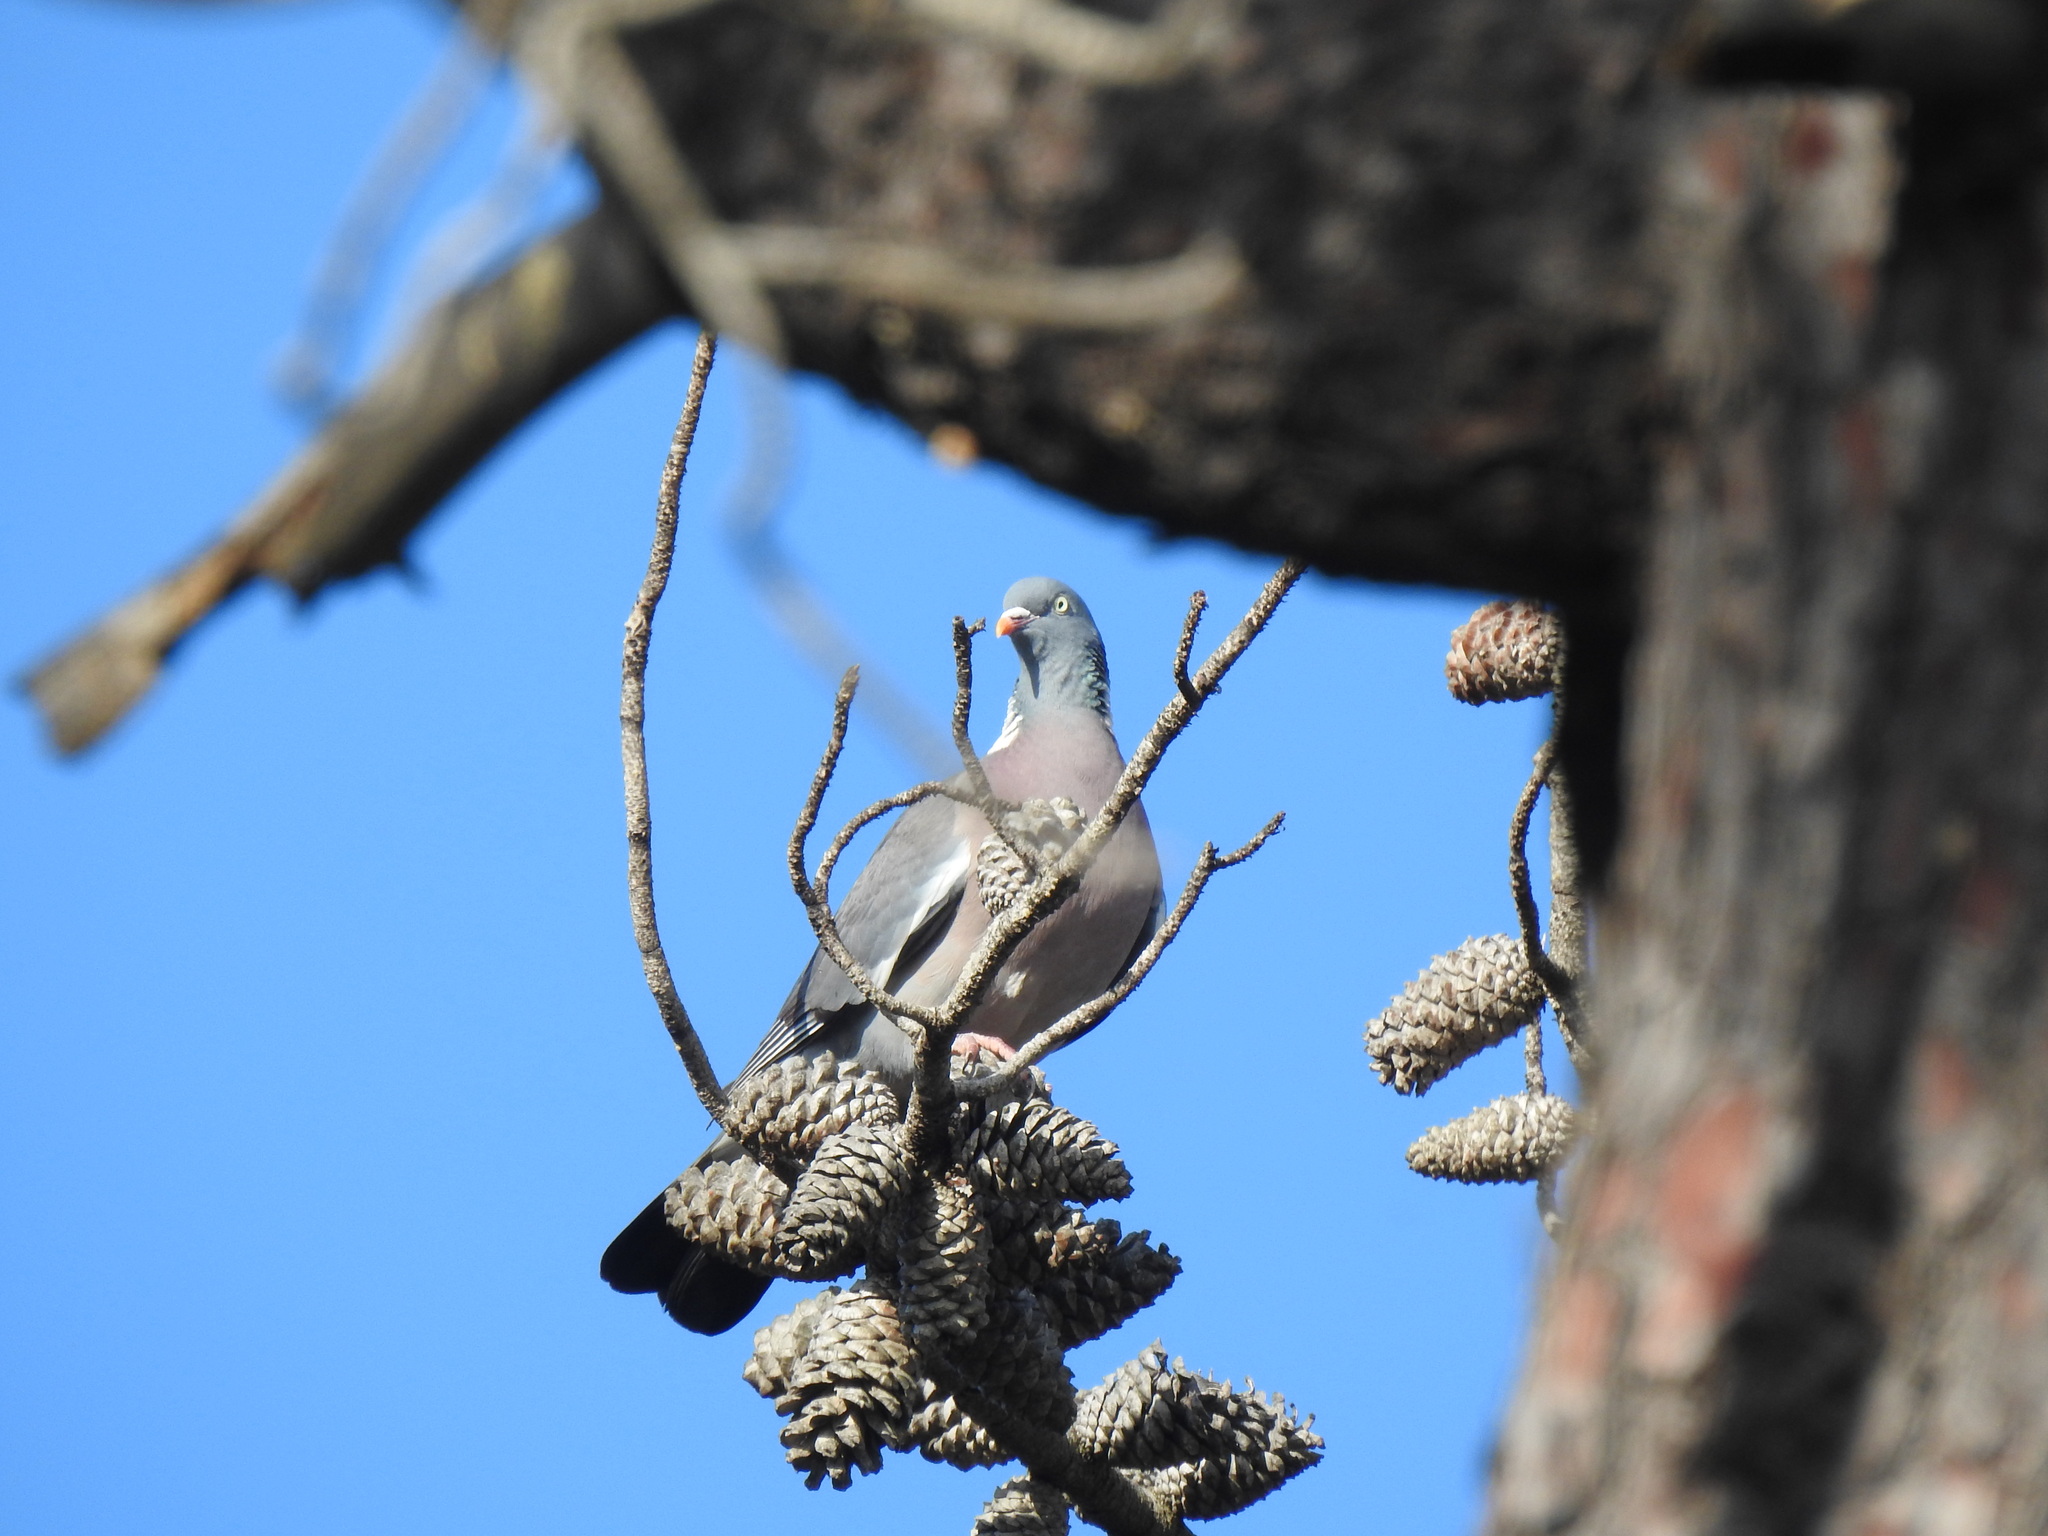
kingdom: Animalia
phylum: Chordata
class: Aves
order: Columbiformes
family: Columbidae
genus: Columba
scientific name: Columba palumbus
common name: Common wood pigeon
